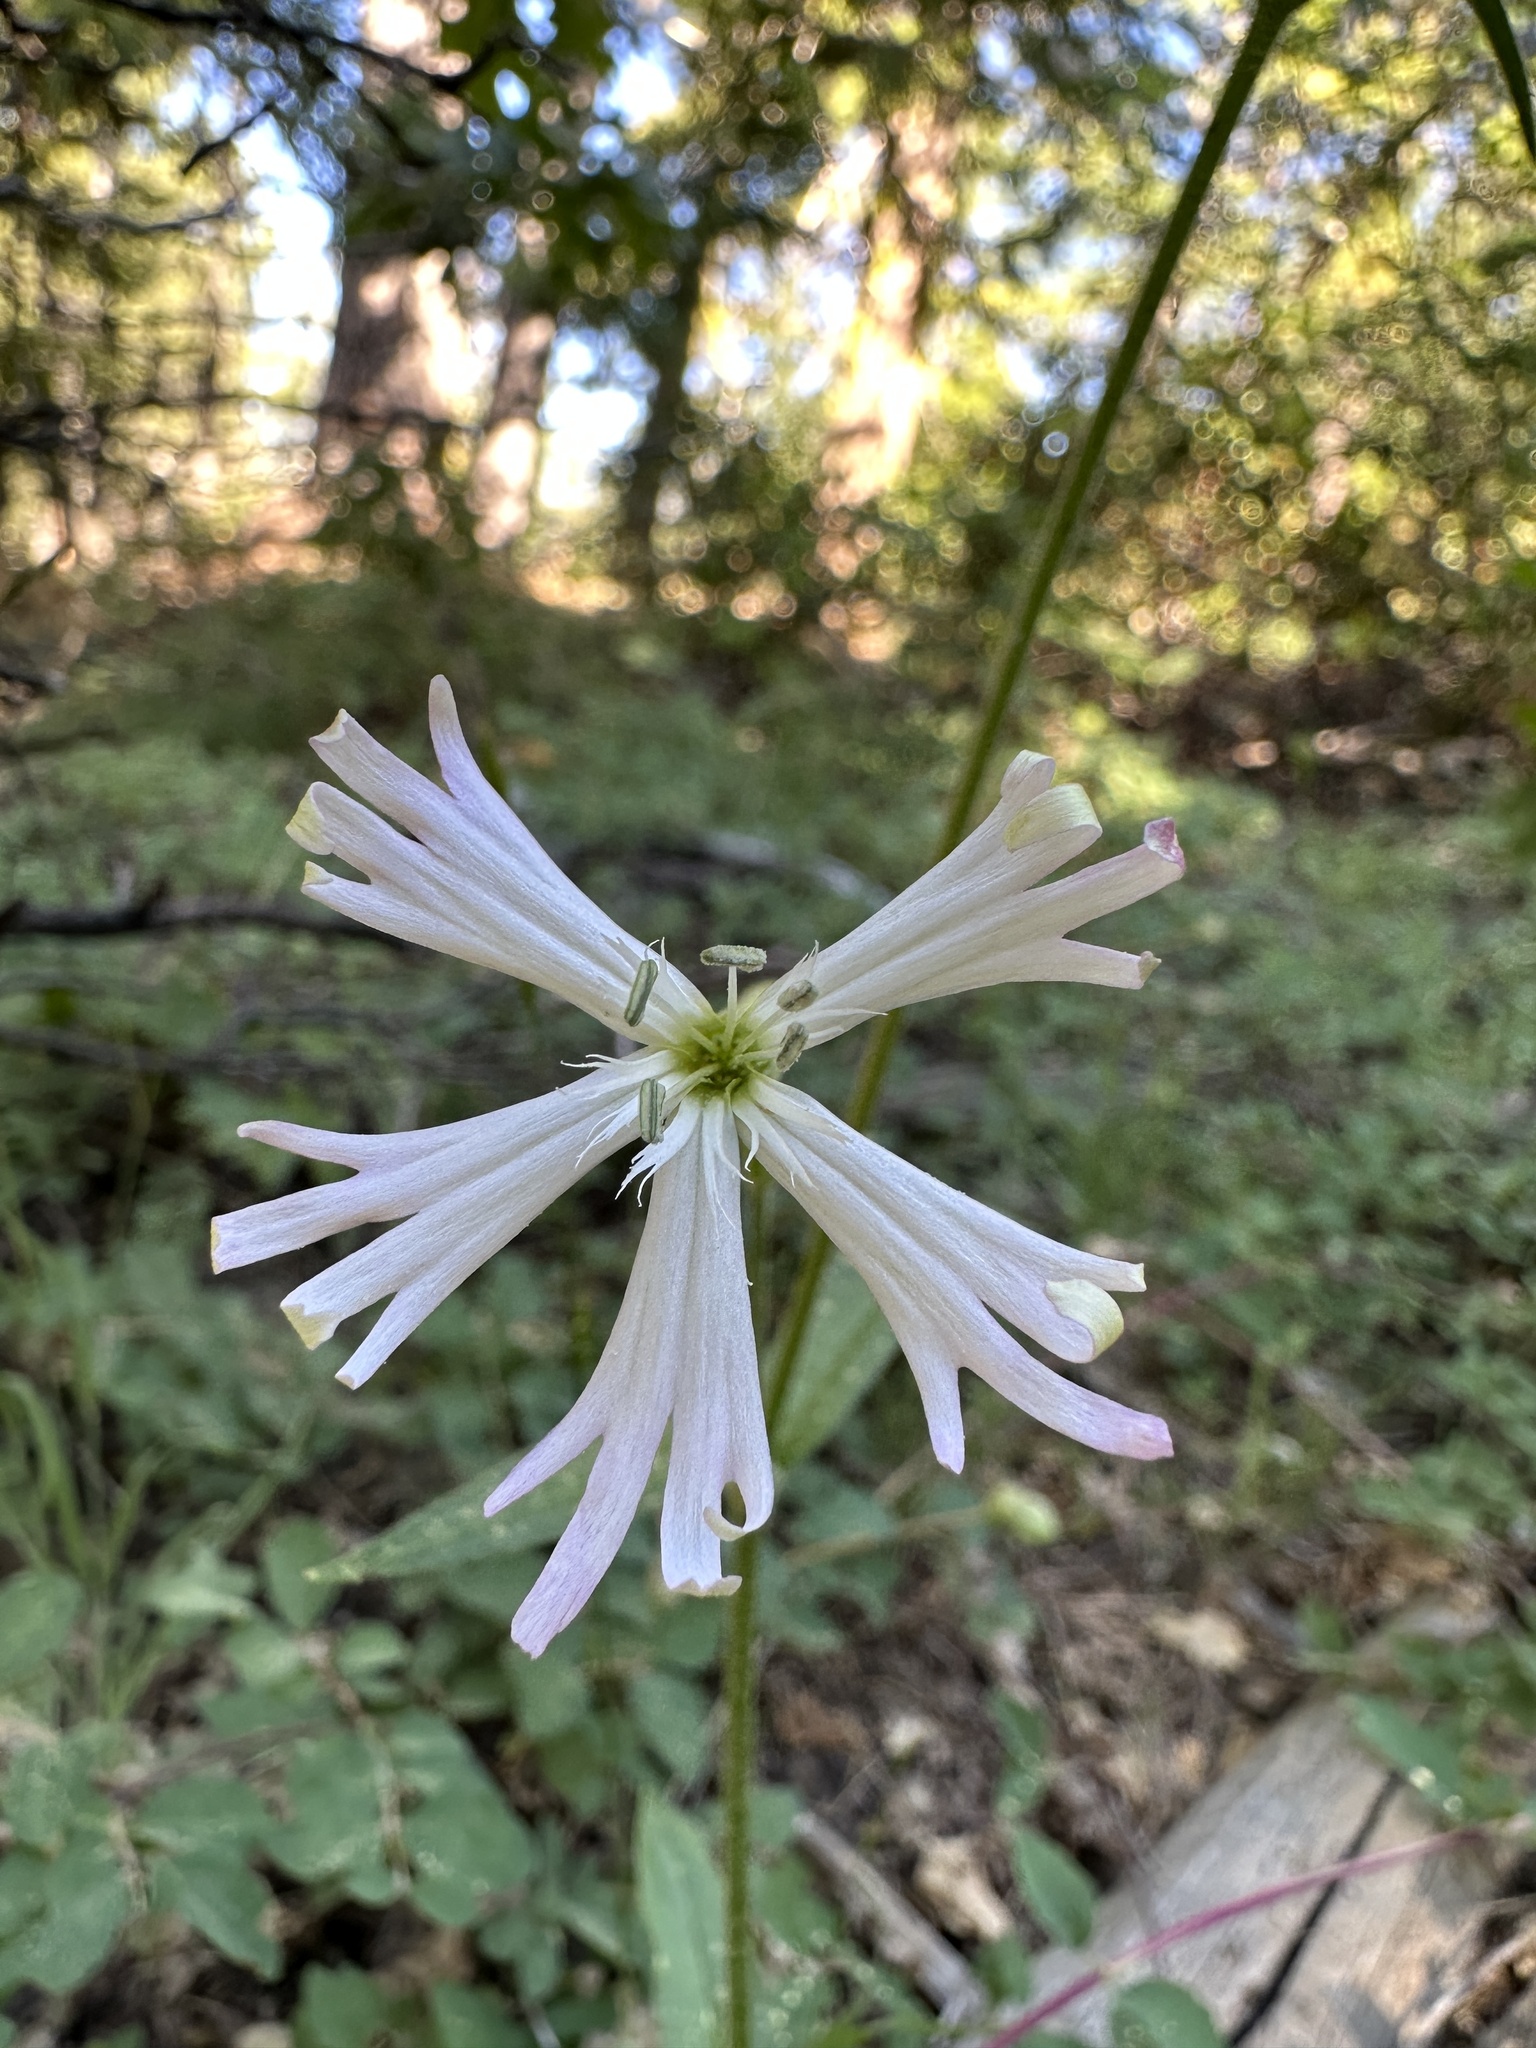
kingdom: Plantae
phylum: Tracheophyta
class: Magnoliopsida
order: Caryophyllales
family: Caryophyllaceae
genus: Silene
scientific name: Silene occidentalis
